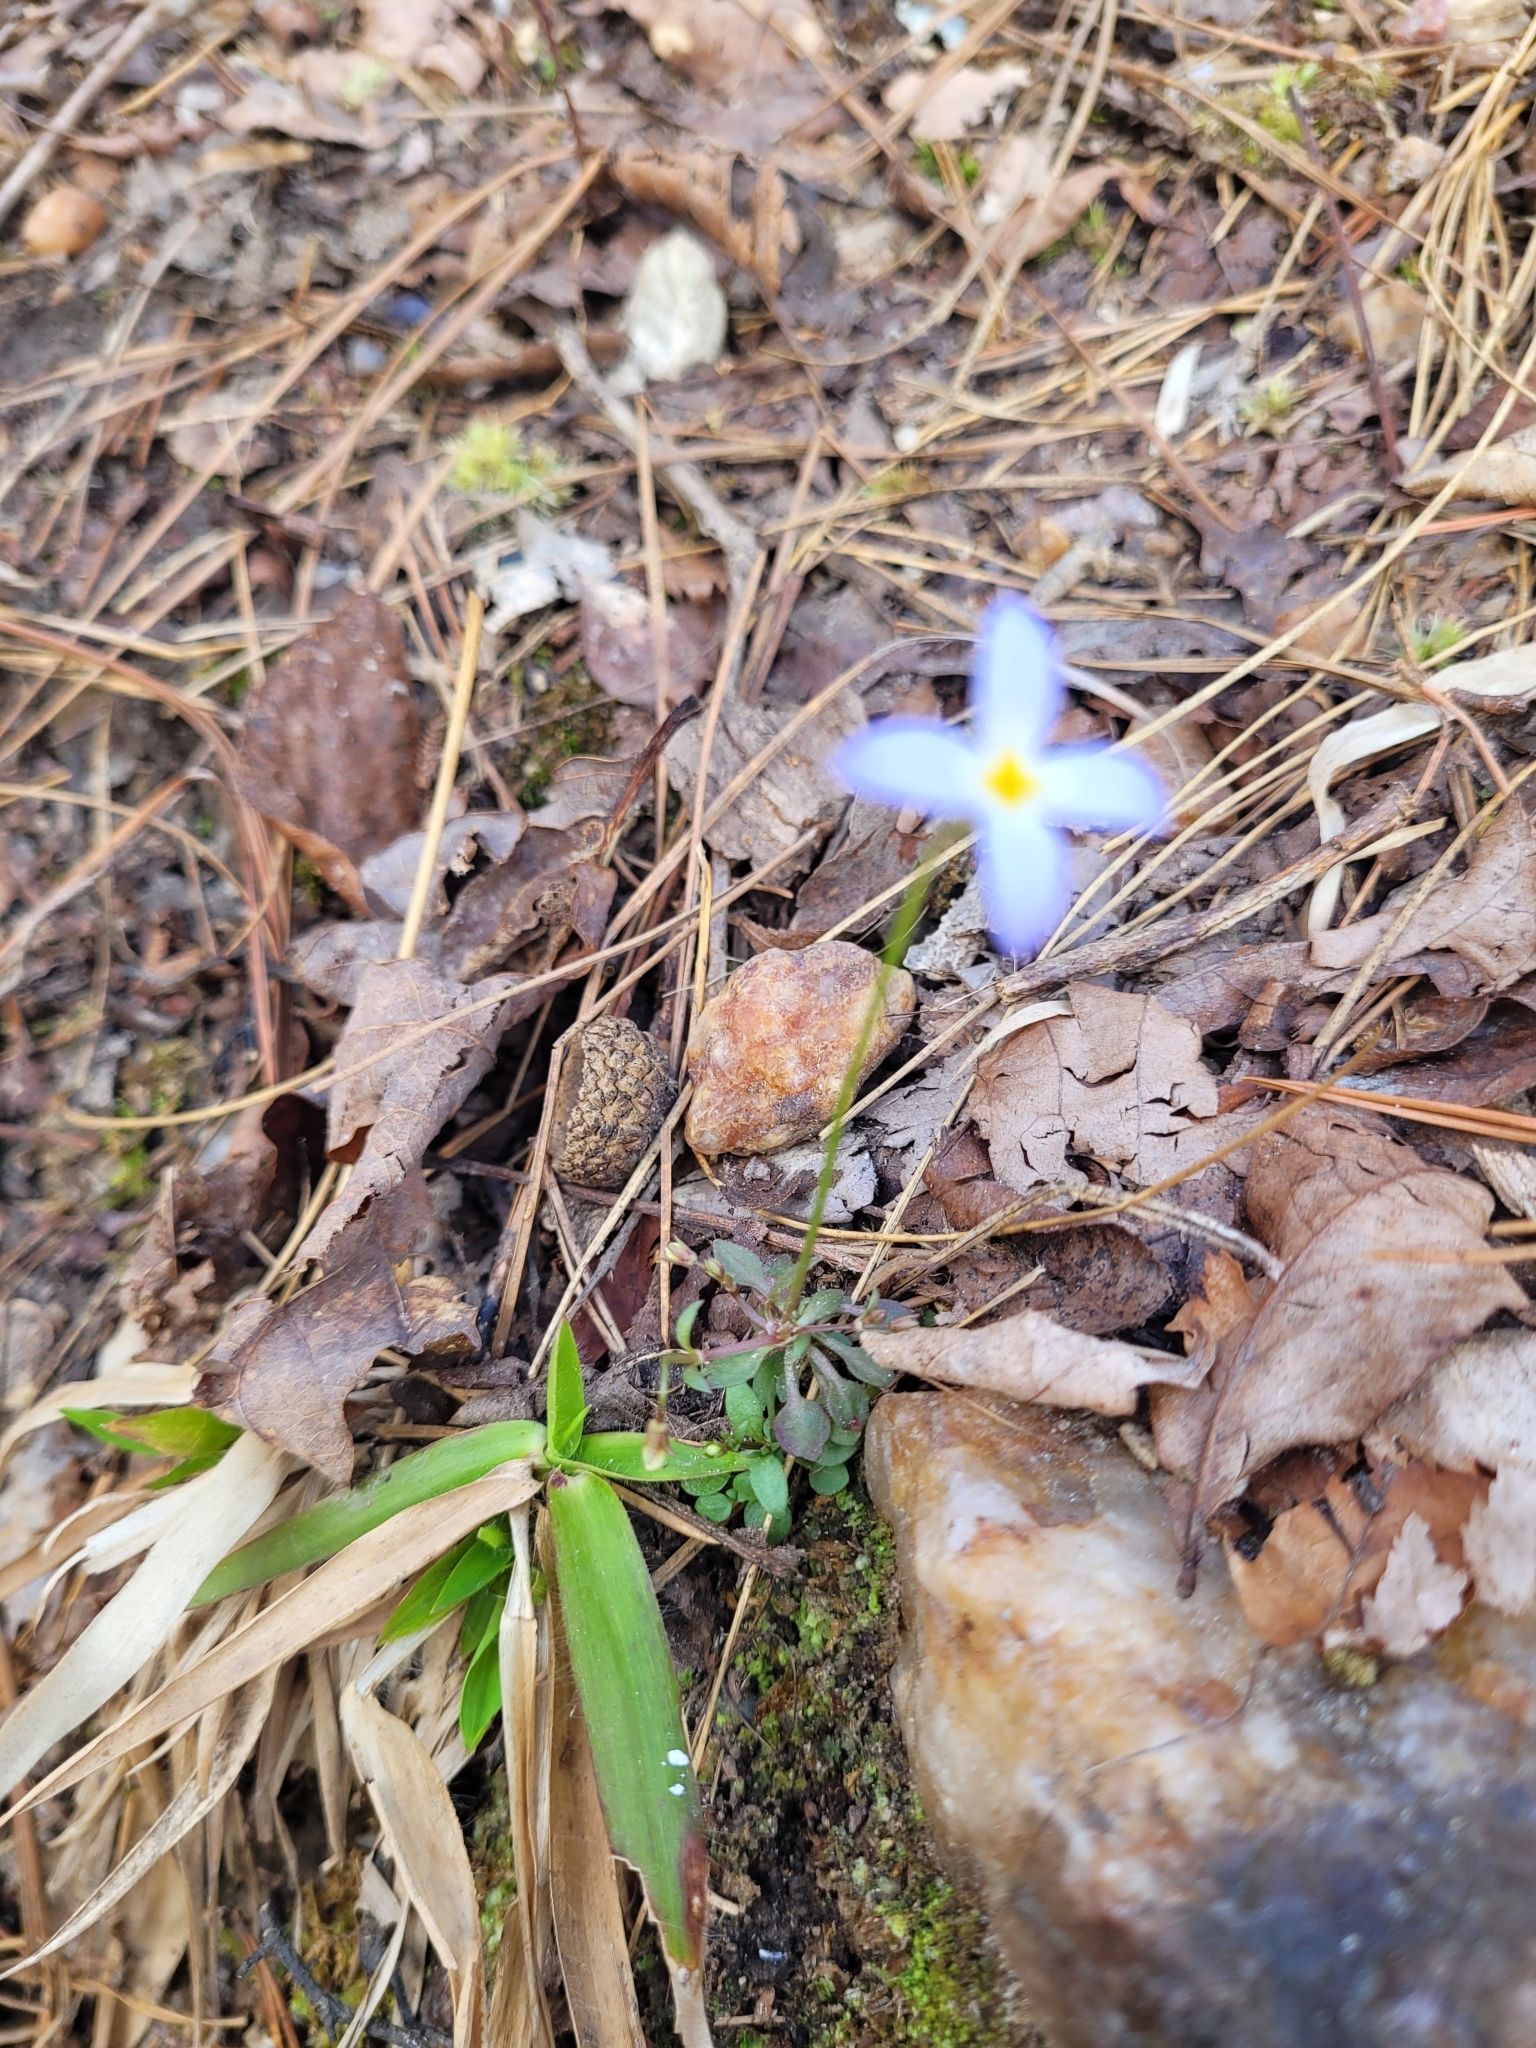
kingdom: Plantae
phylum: Tracheophyta
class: Magnoliopsida
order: Gentianales
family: Rubiaceae
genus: Houstonia
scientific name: Houstonia caerulea
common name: Bluets
